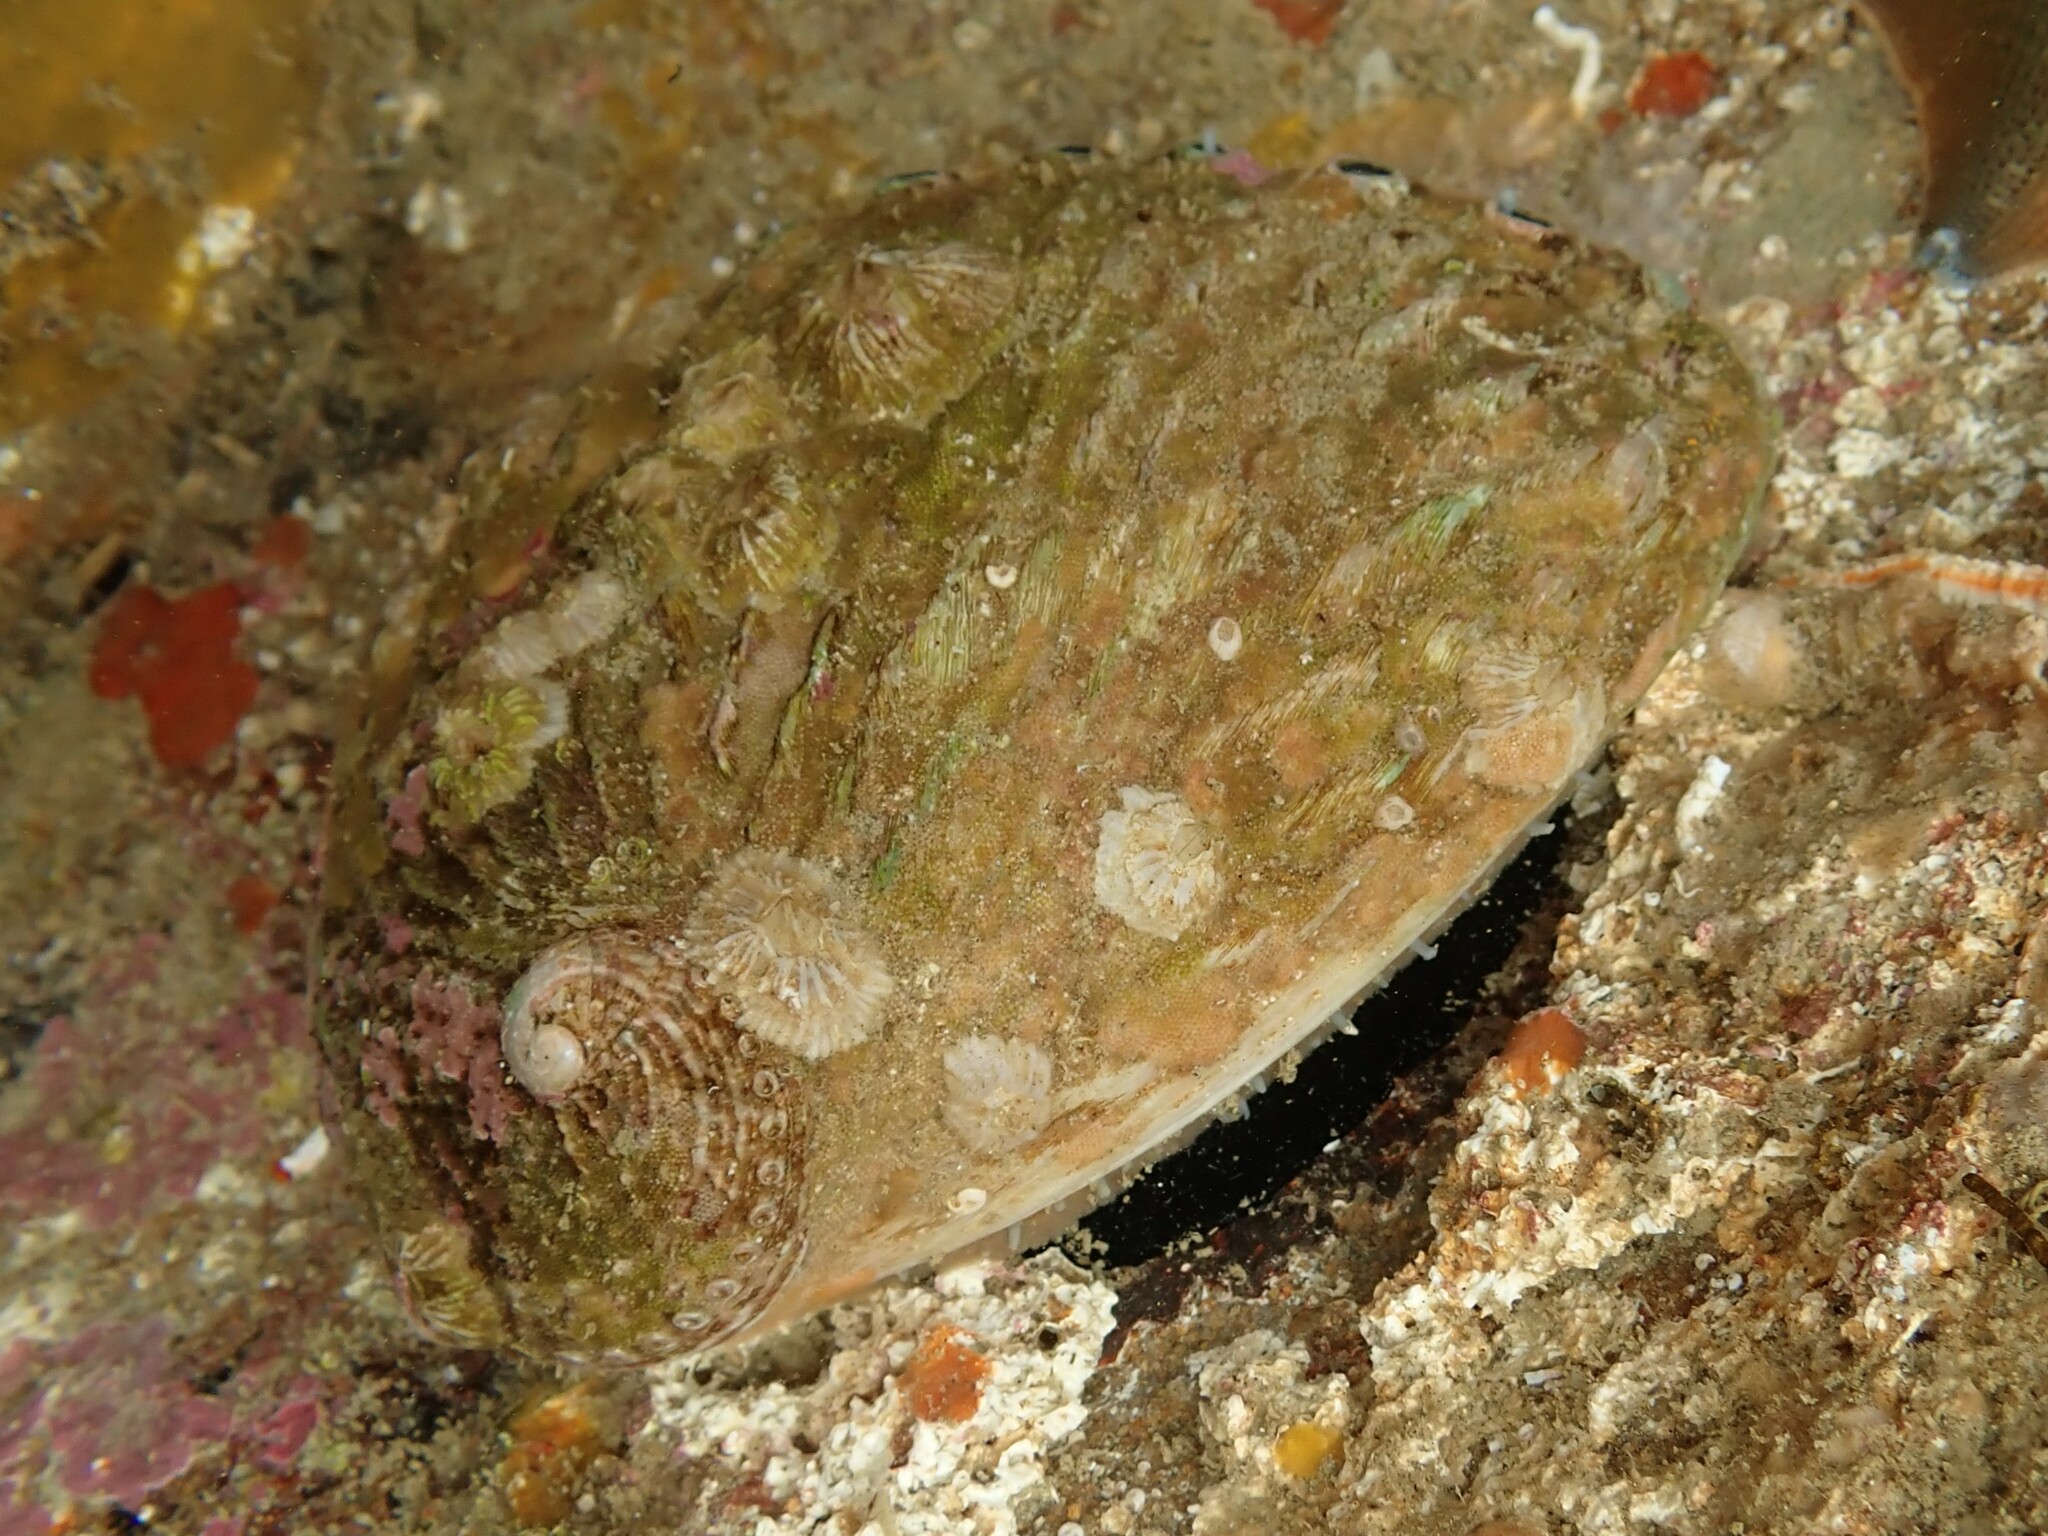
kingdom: Animalia
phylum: Mollusca
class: Gastropoda
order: Lepetellida
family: Haliotidae
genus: Haliotis
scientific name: Haliotis australis
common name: Silver abalone
